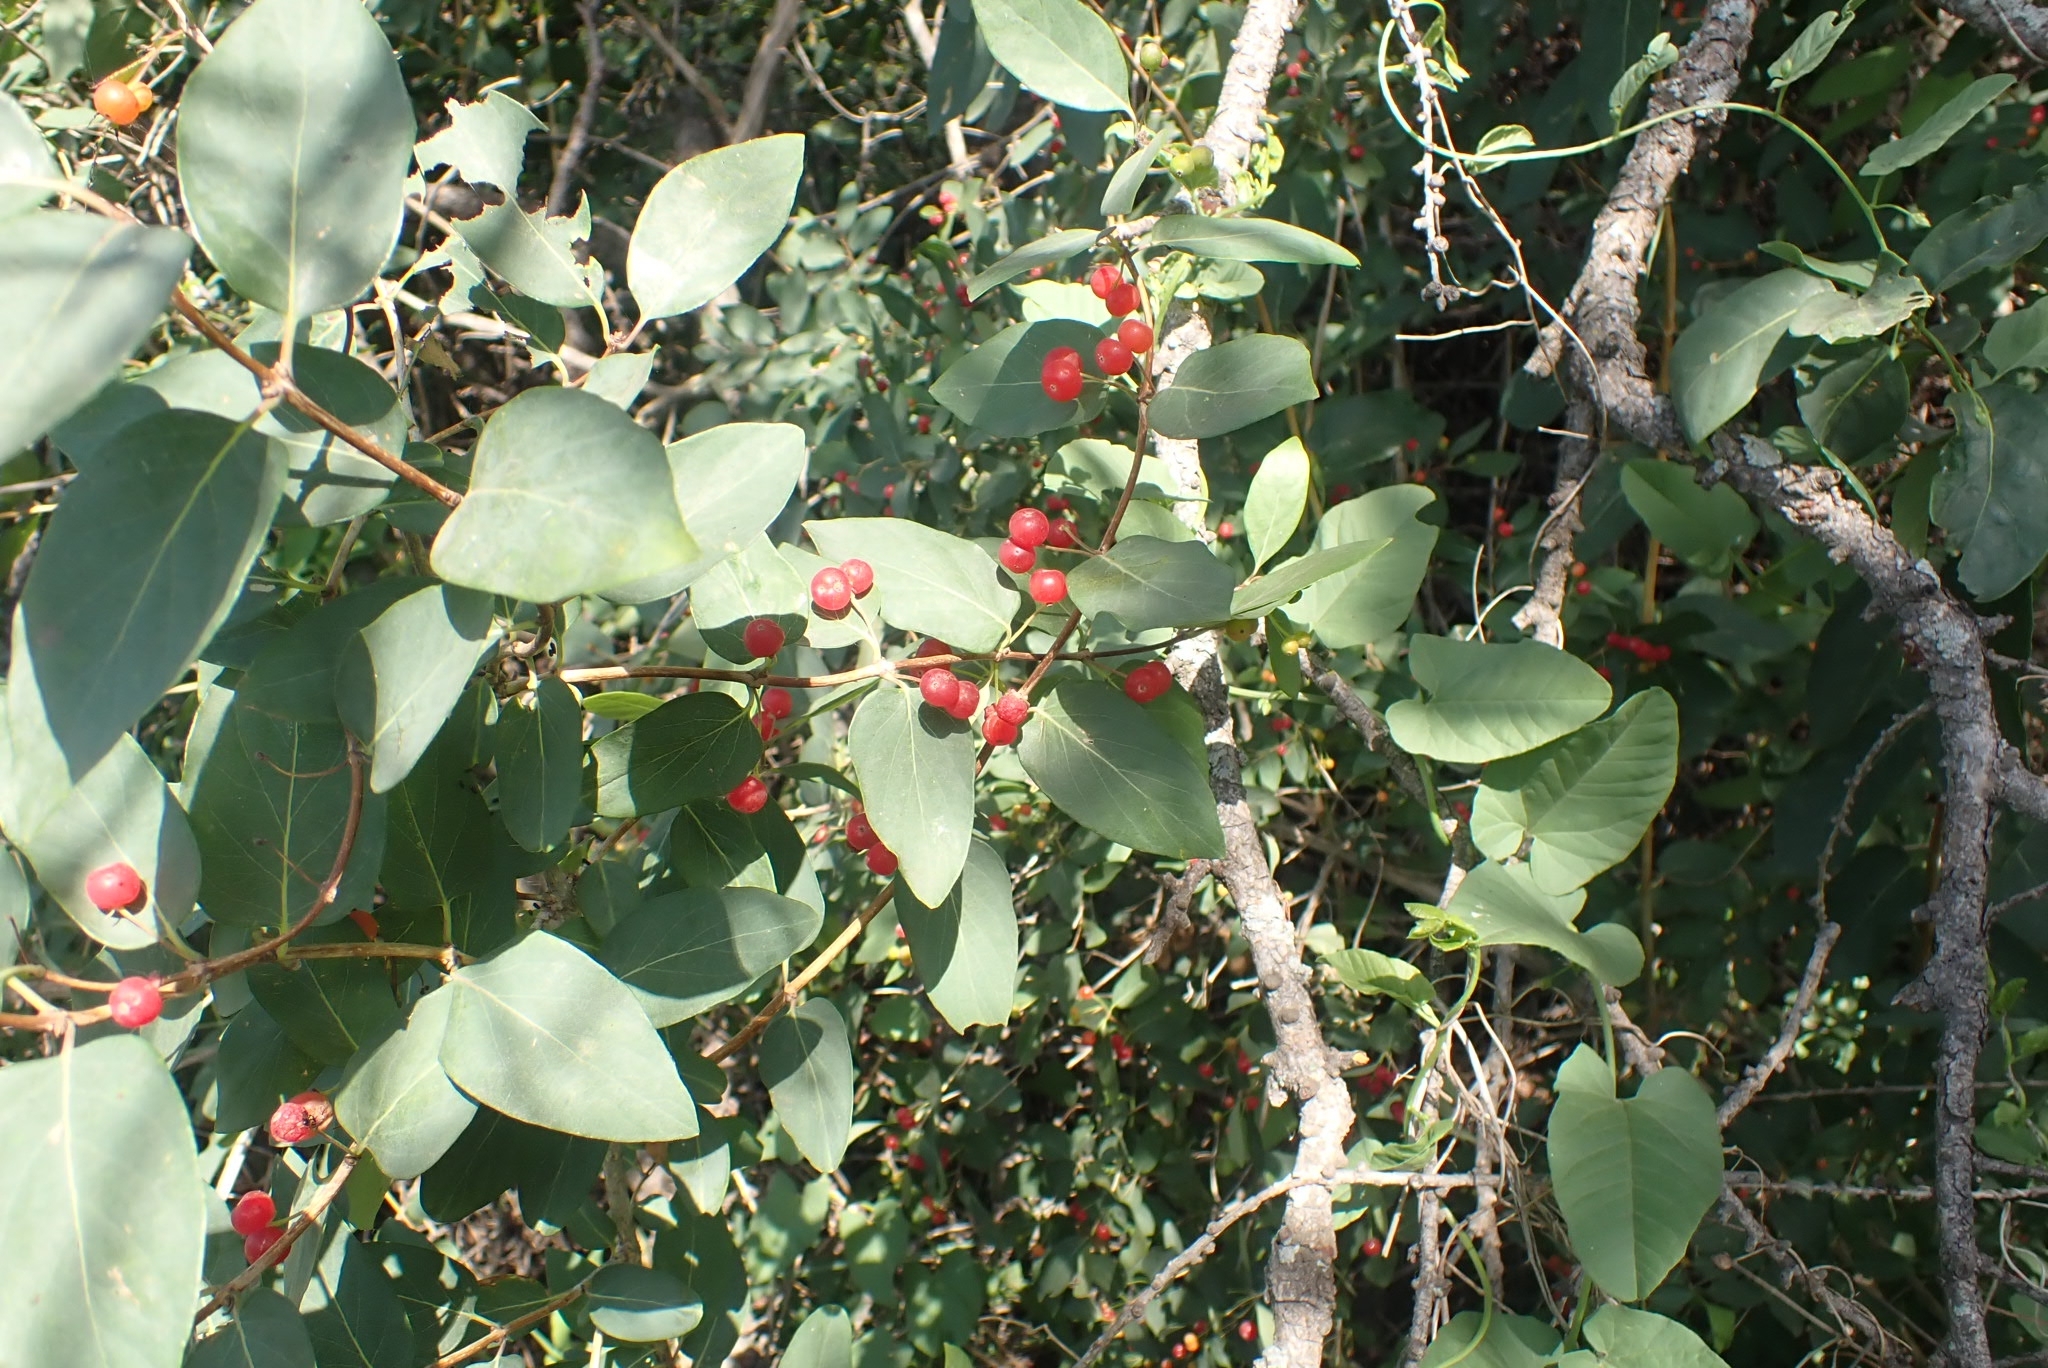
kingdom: Plantae
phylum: Tracheophyta
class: Magnoliopsida
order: Dipsacales
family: Caprifoliaceae
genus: Lonicera
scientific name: Lonicera tatarica
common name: Tatarian honeysuckle
